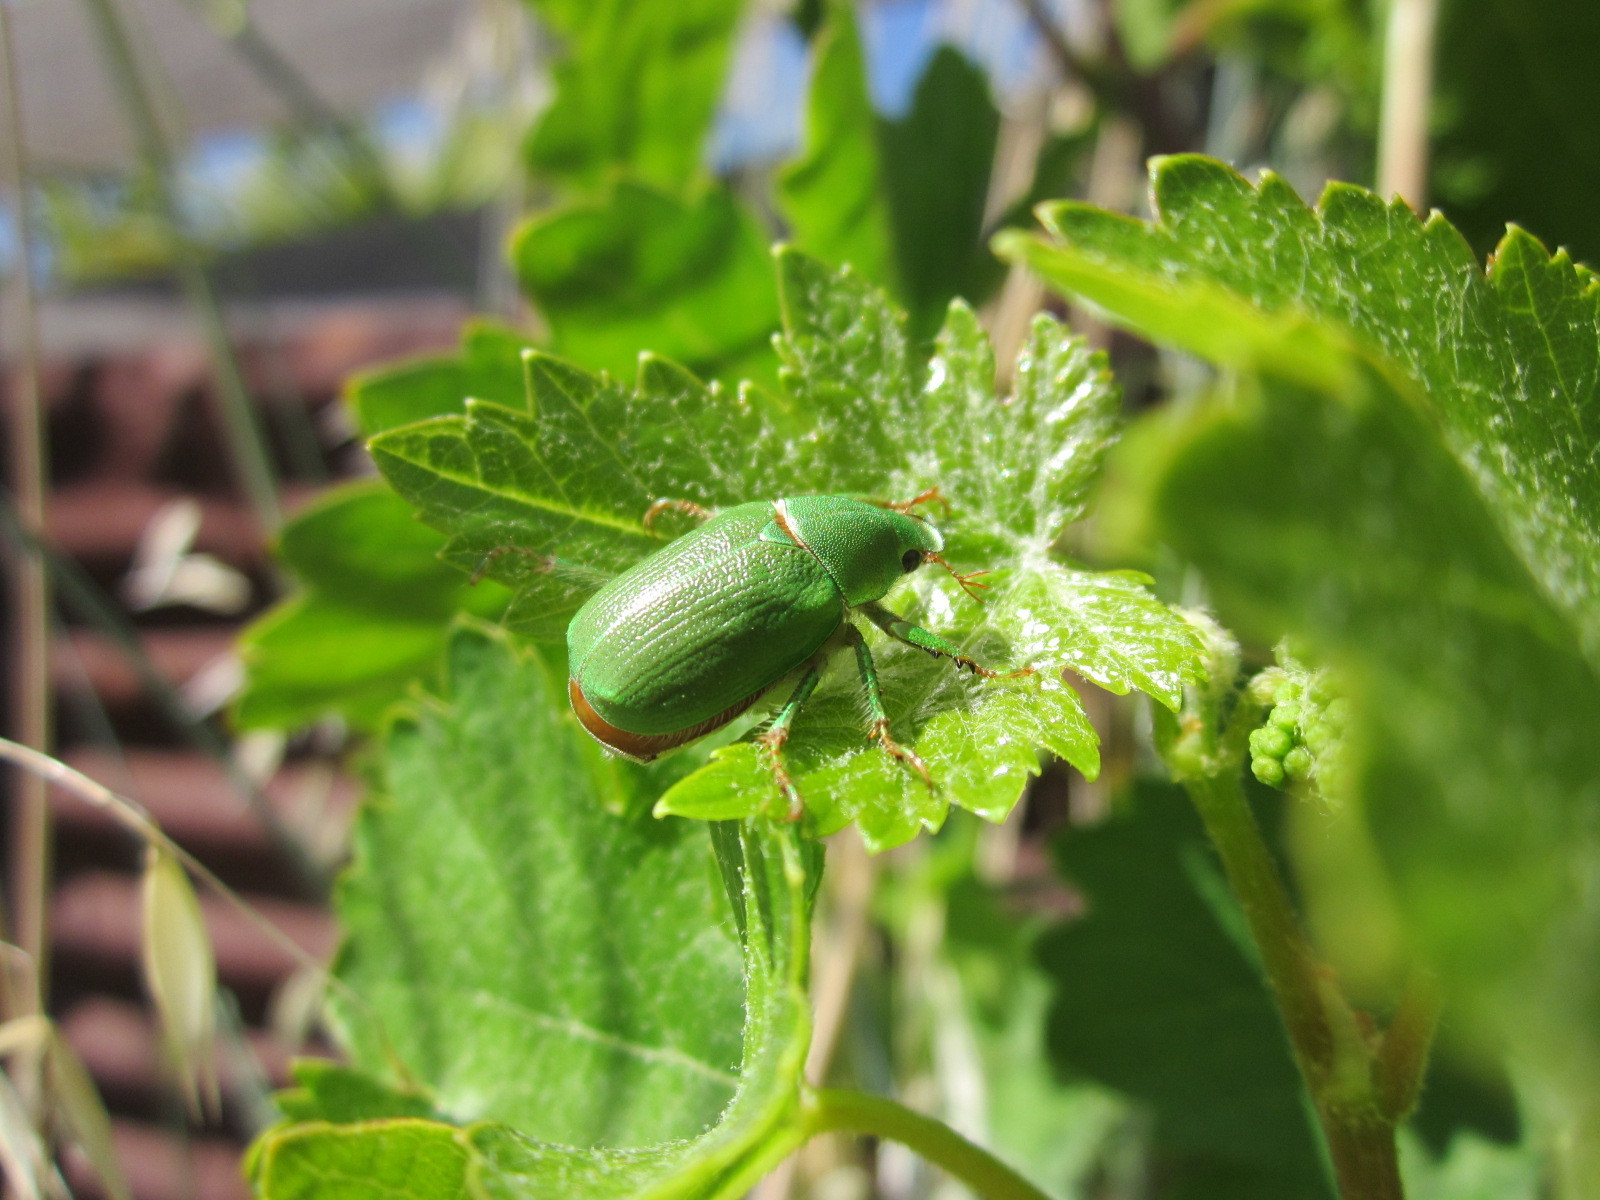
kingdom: Animalia
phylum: Arthropoda
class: Insecta
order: Coleoptera
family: Scarabaeidae
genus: Hylamorpha
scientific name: Hylamorpha elegans
